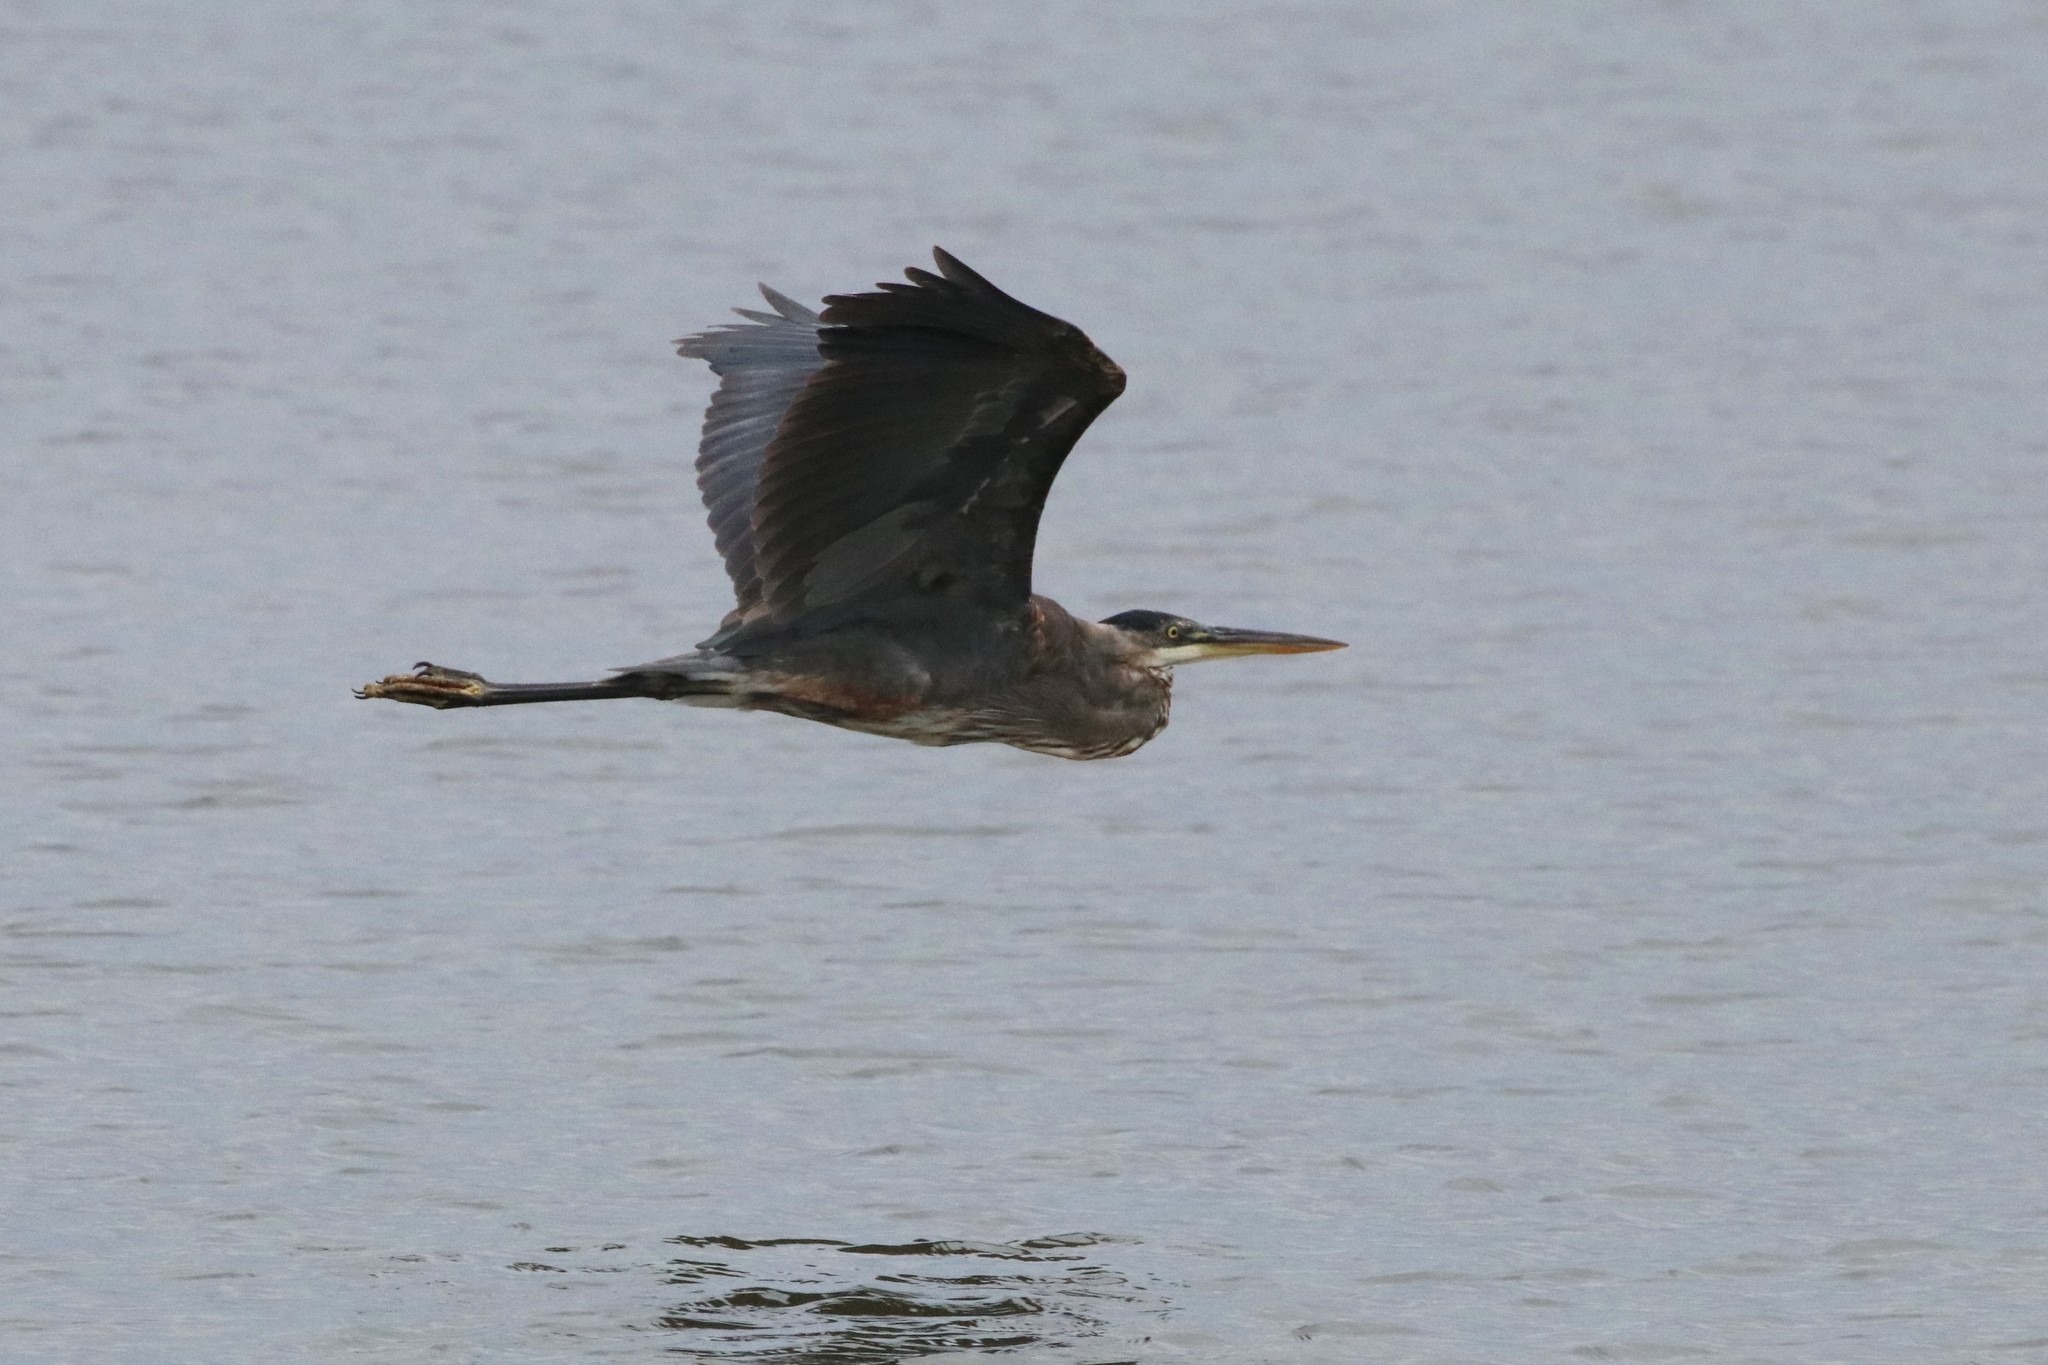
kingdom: Animalia
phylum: Chordata
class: Aves
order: Pelecaniformes
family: Ardeidae
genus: Ardea
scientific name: Ardea herodias
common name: Great blue heron
